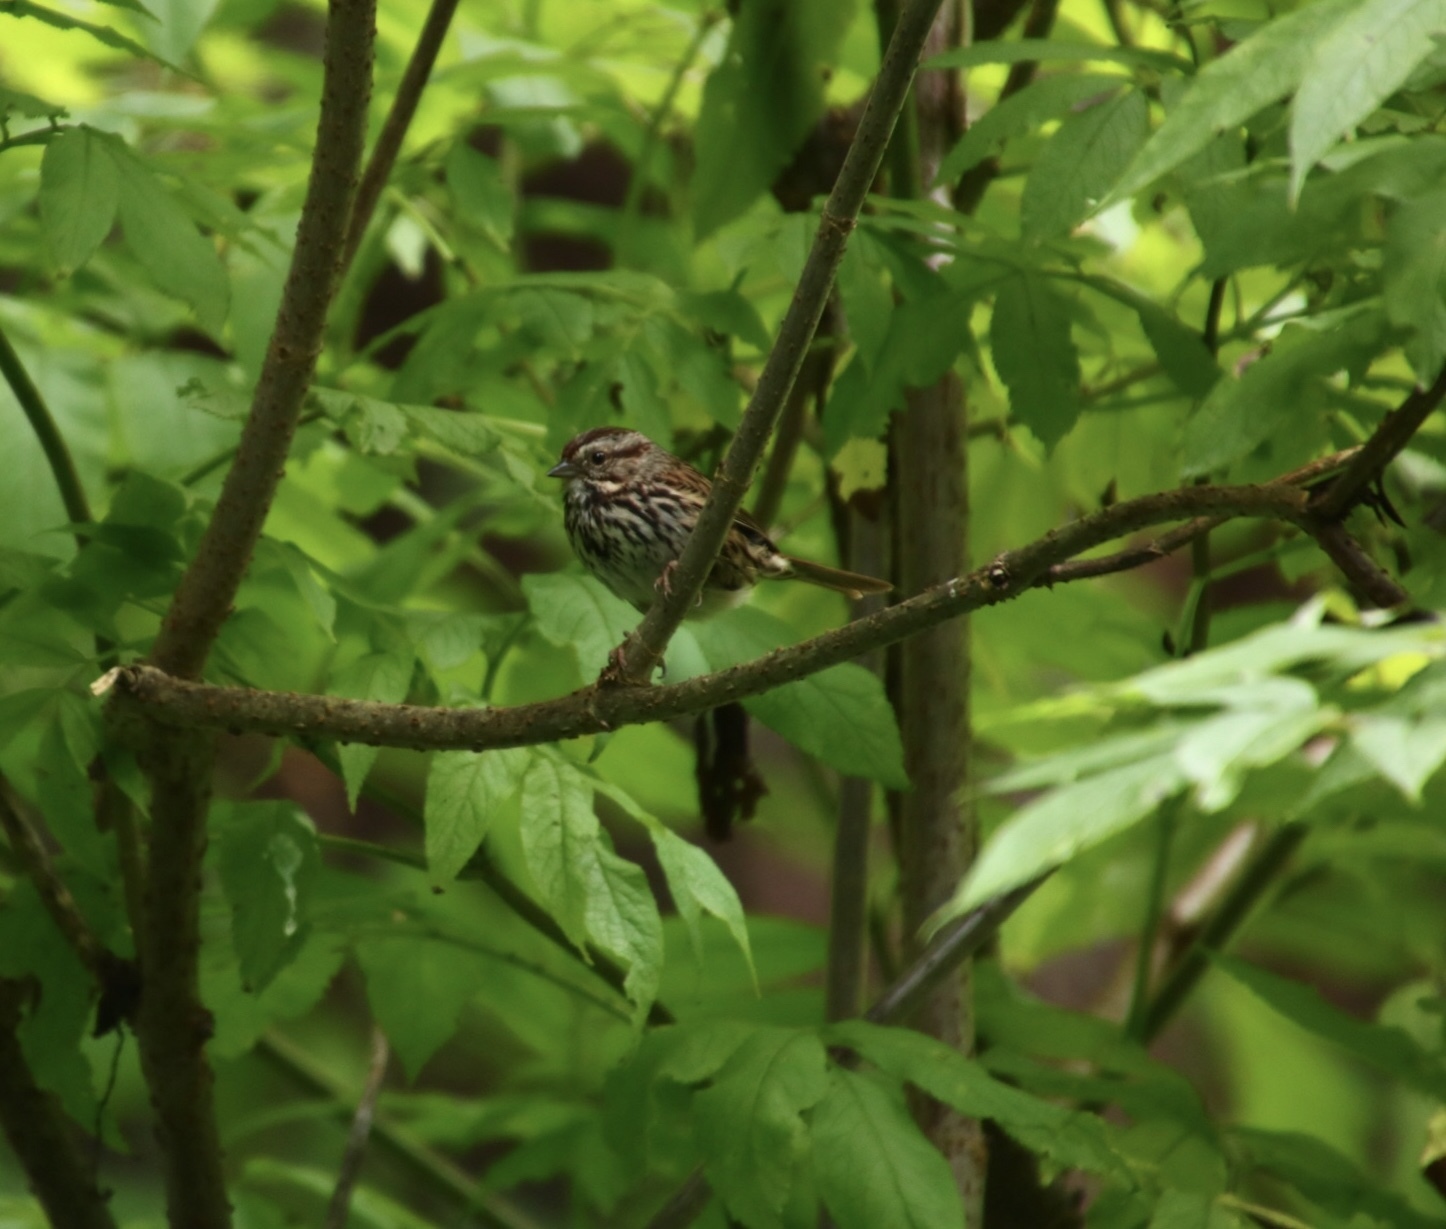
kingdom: Animalia
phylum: Chordata
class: Aves
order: Passeriformes
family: Passerellidae
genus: Melospiza
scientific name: Melospiza melodia
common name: Song sparrow
